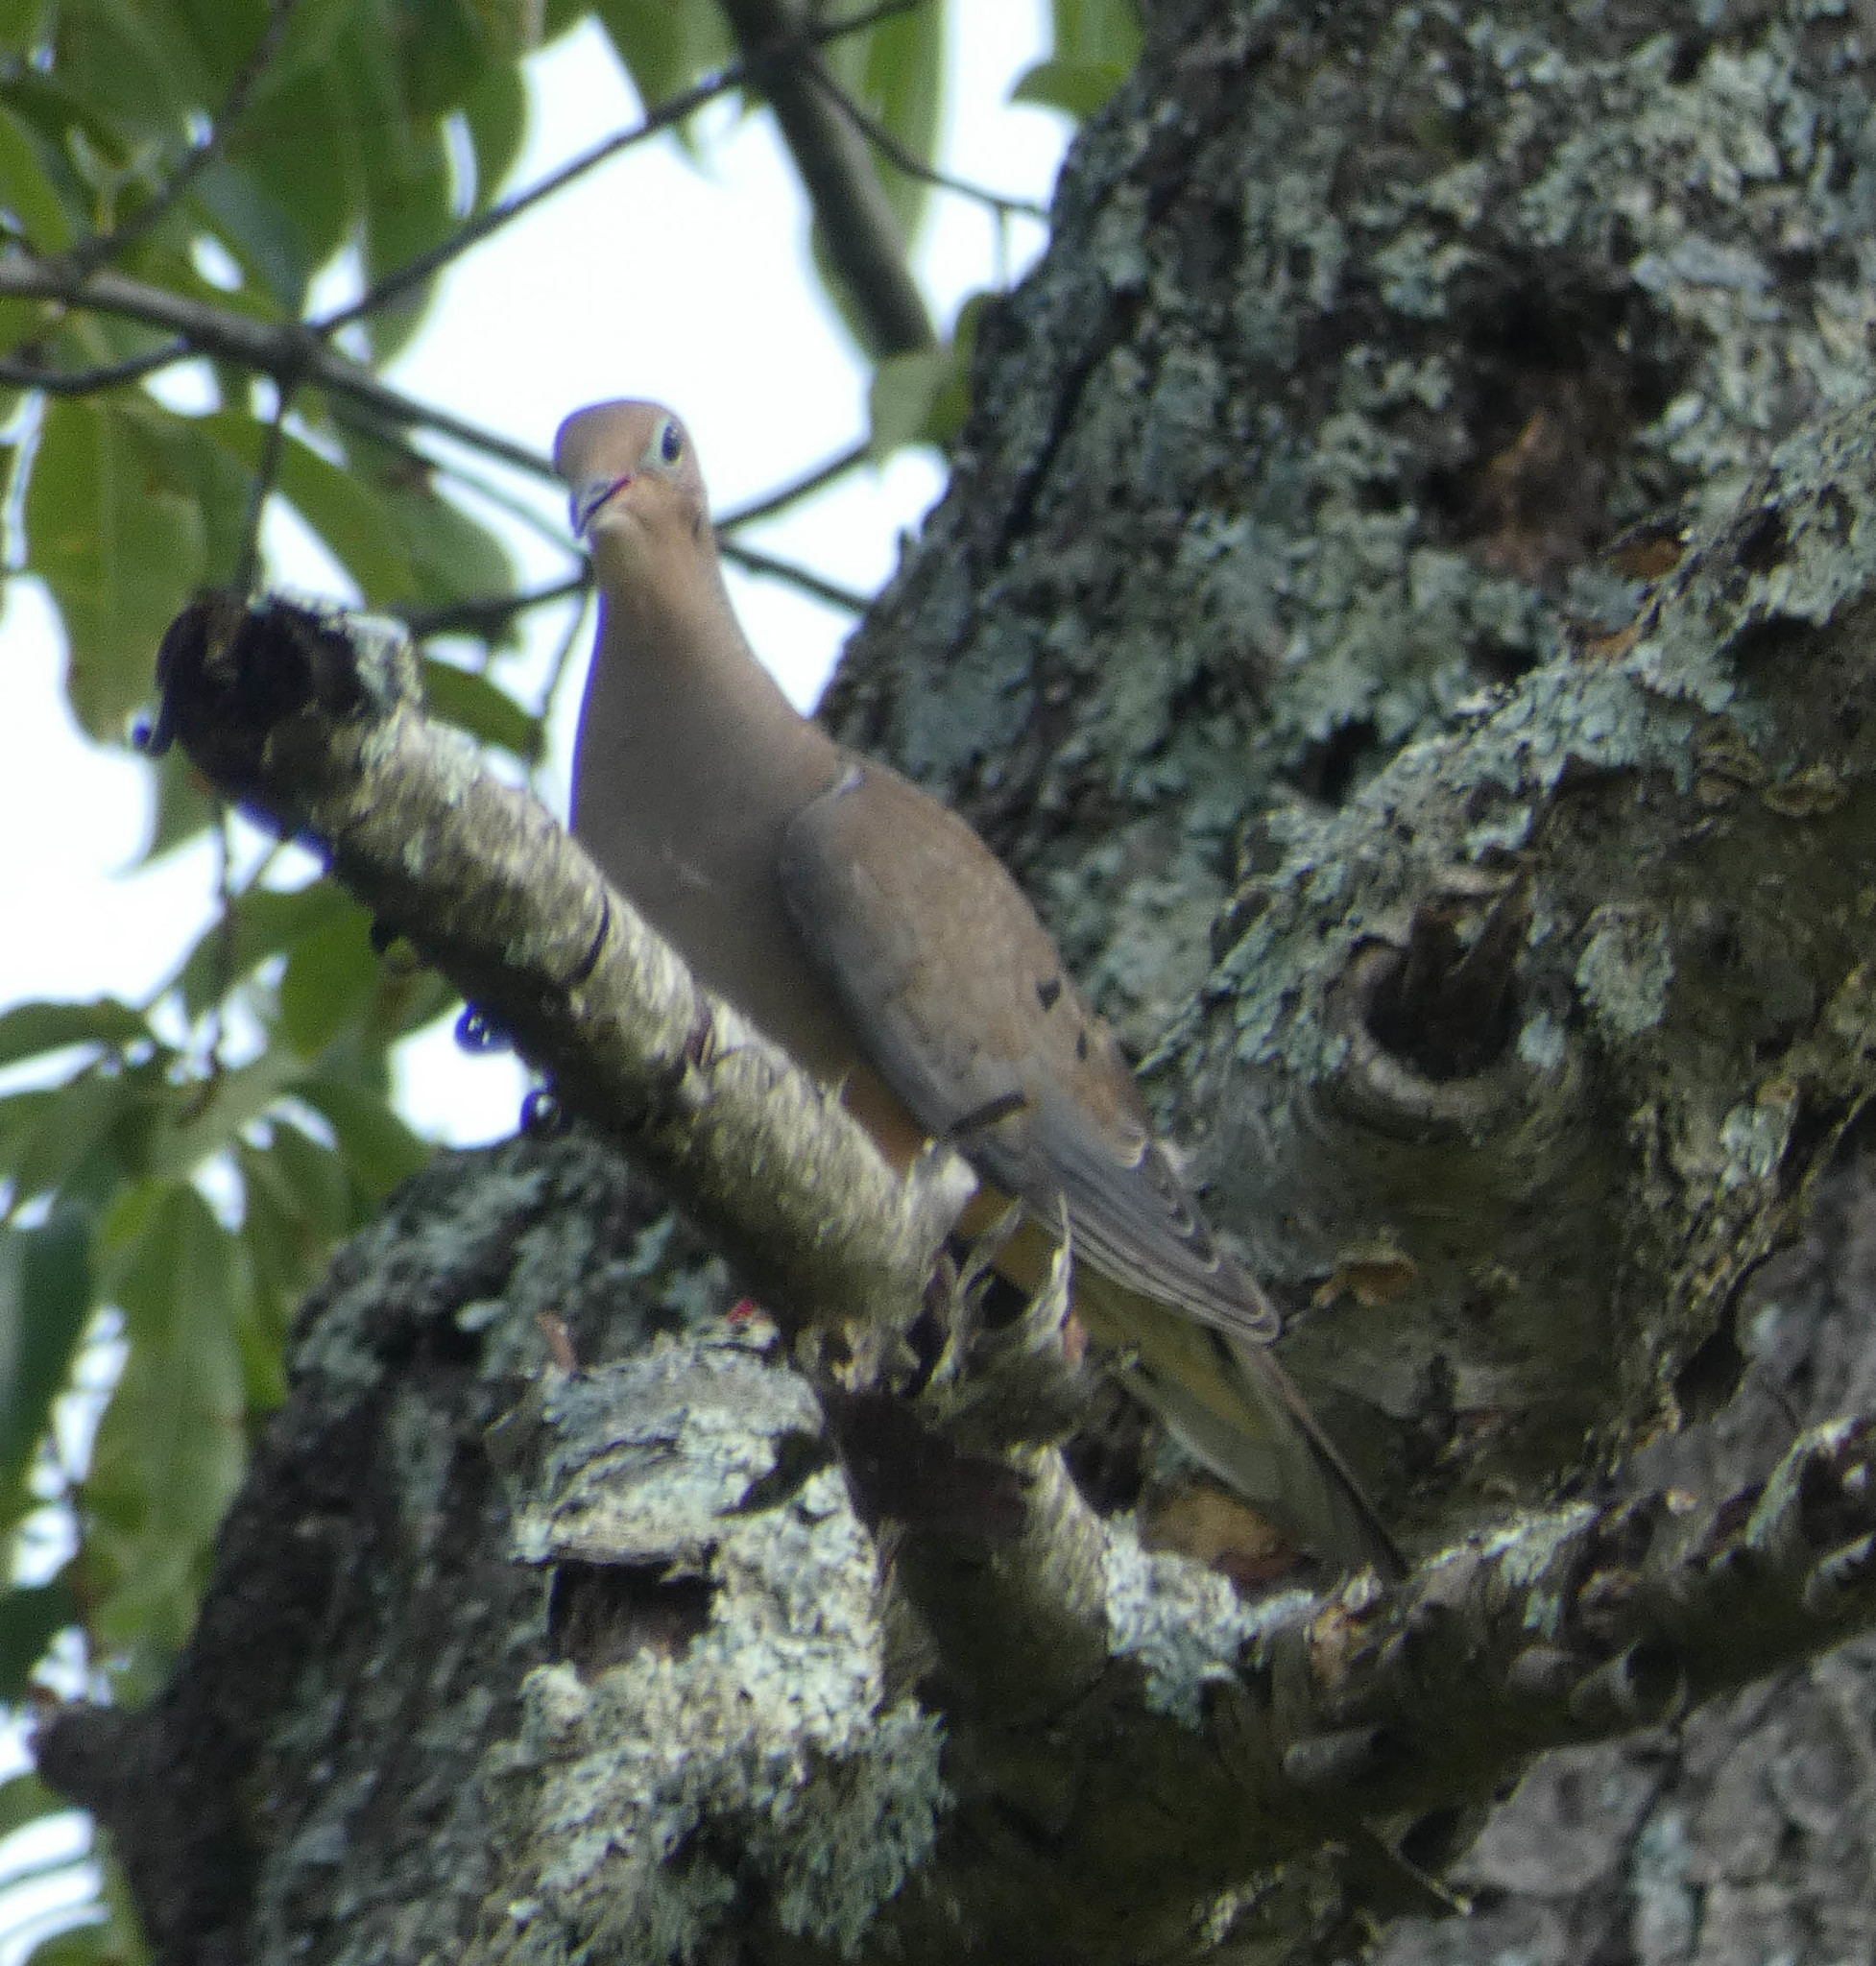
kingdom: Animalia
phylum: Chordata
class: Aves
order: Columbiformes
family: Columbidae
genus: Zenaida
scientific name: Zenaida macroura
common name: Mourning dove
